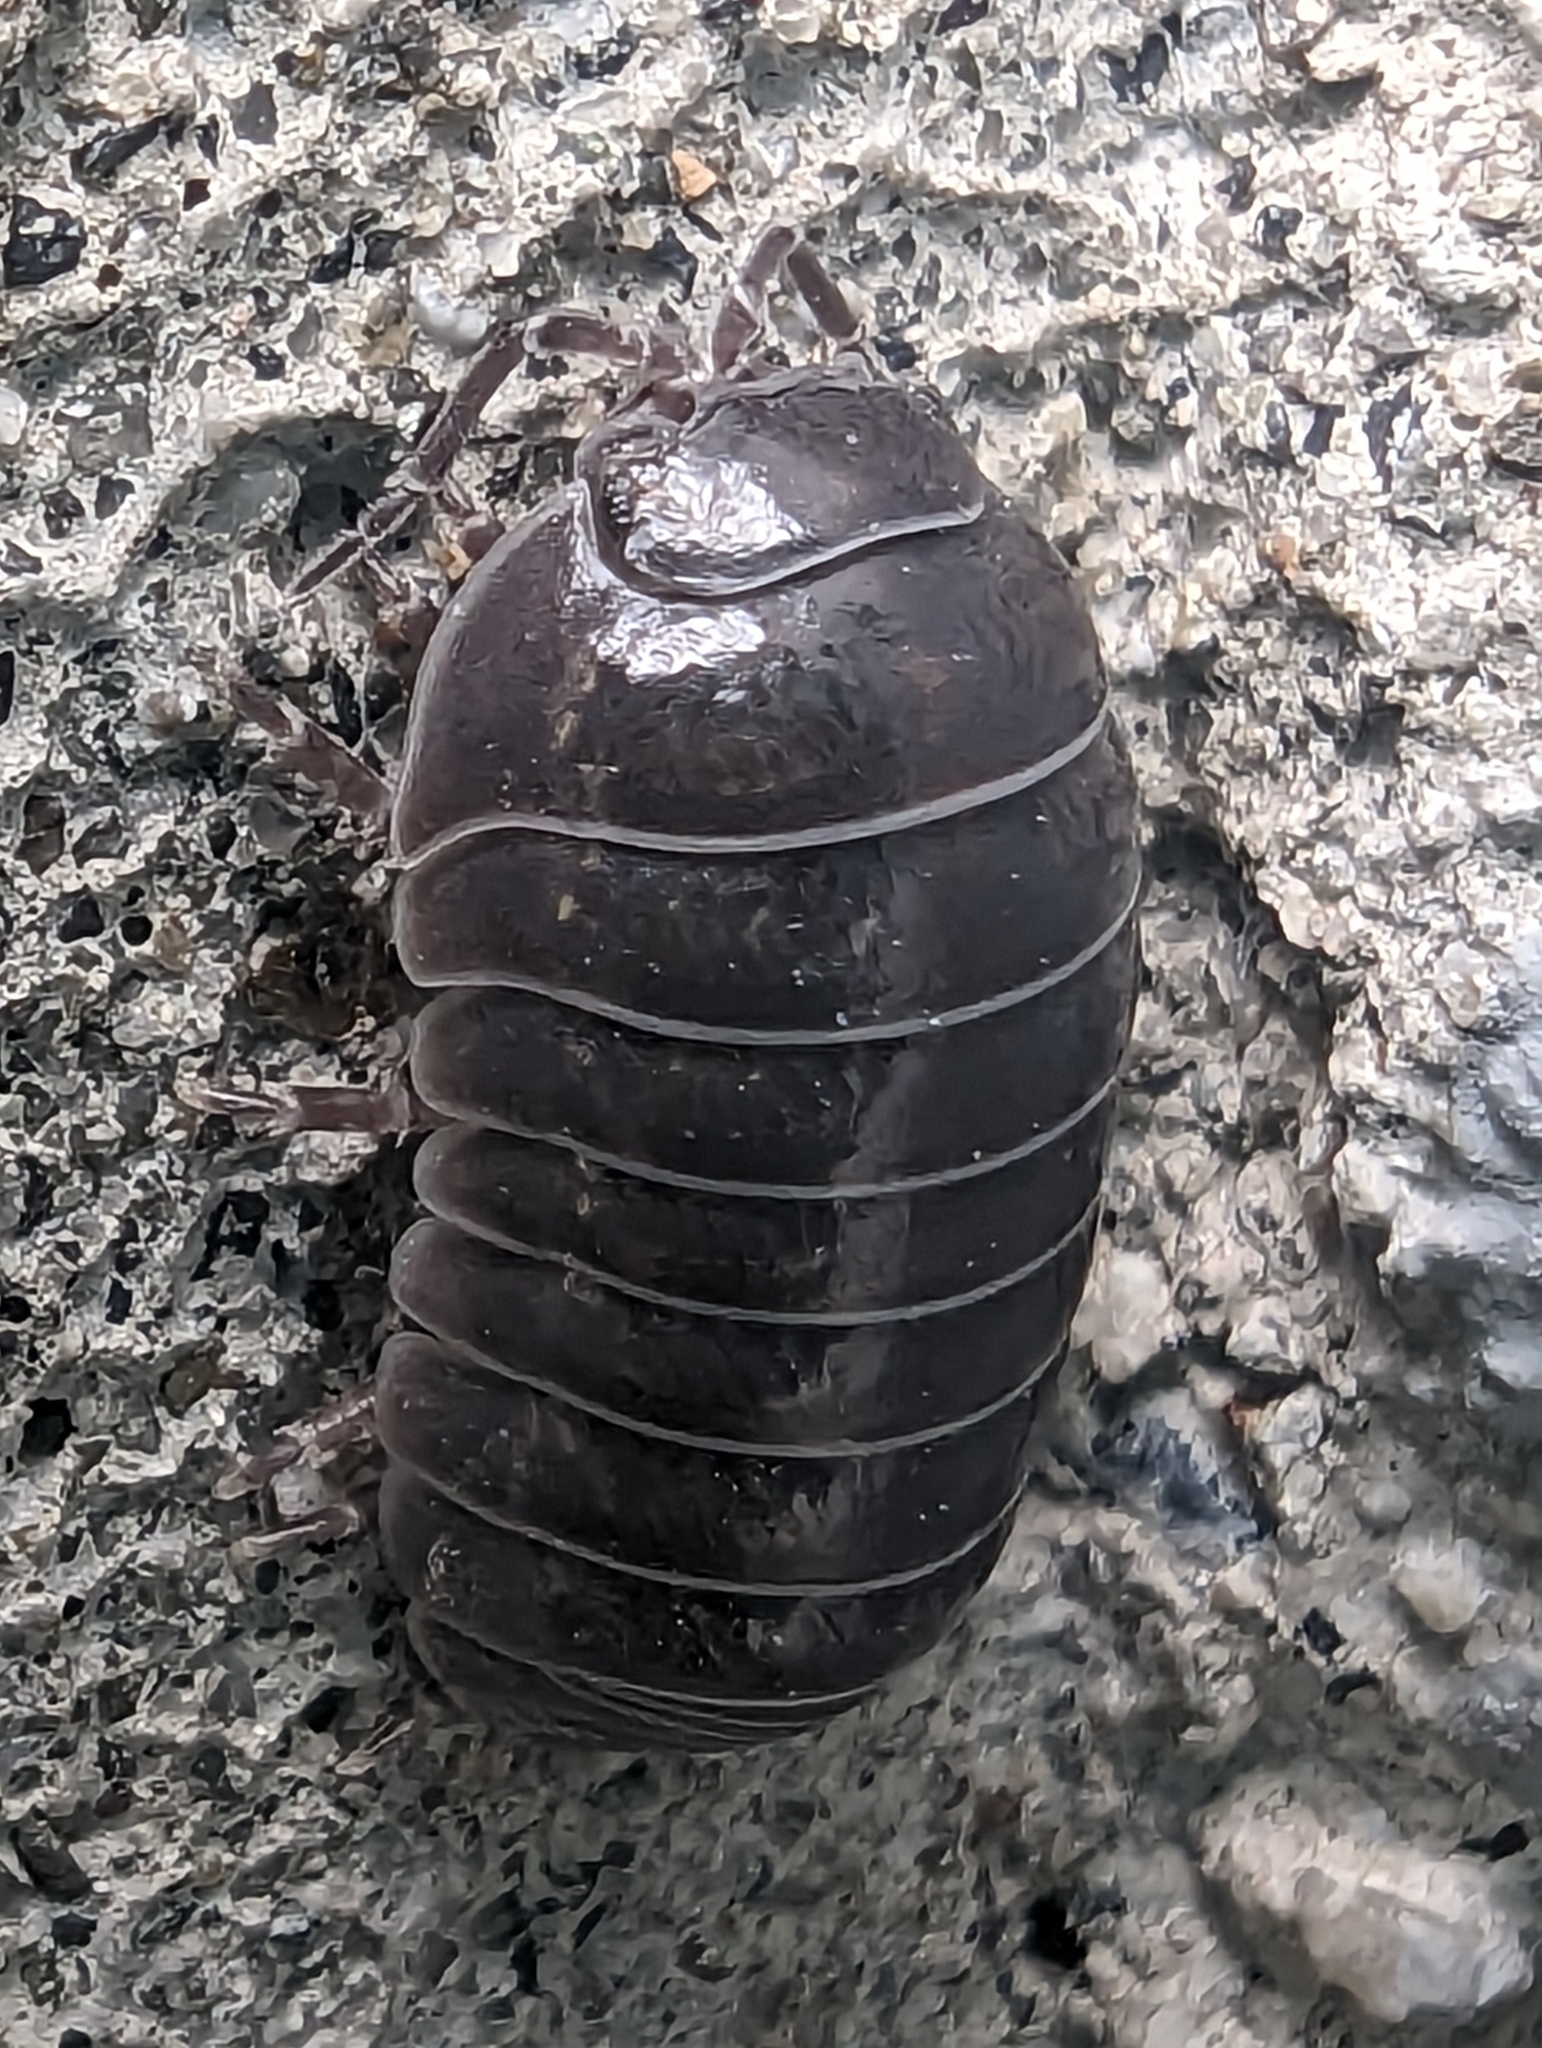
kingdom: Animalia
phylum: Arthropoda
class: Malacostraca
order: Isopoda
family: Armadillidiidae
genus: Armadillidium
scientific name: Armadillidium vulgare
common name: Common pill woodlouse
